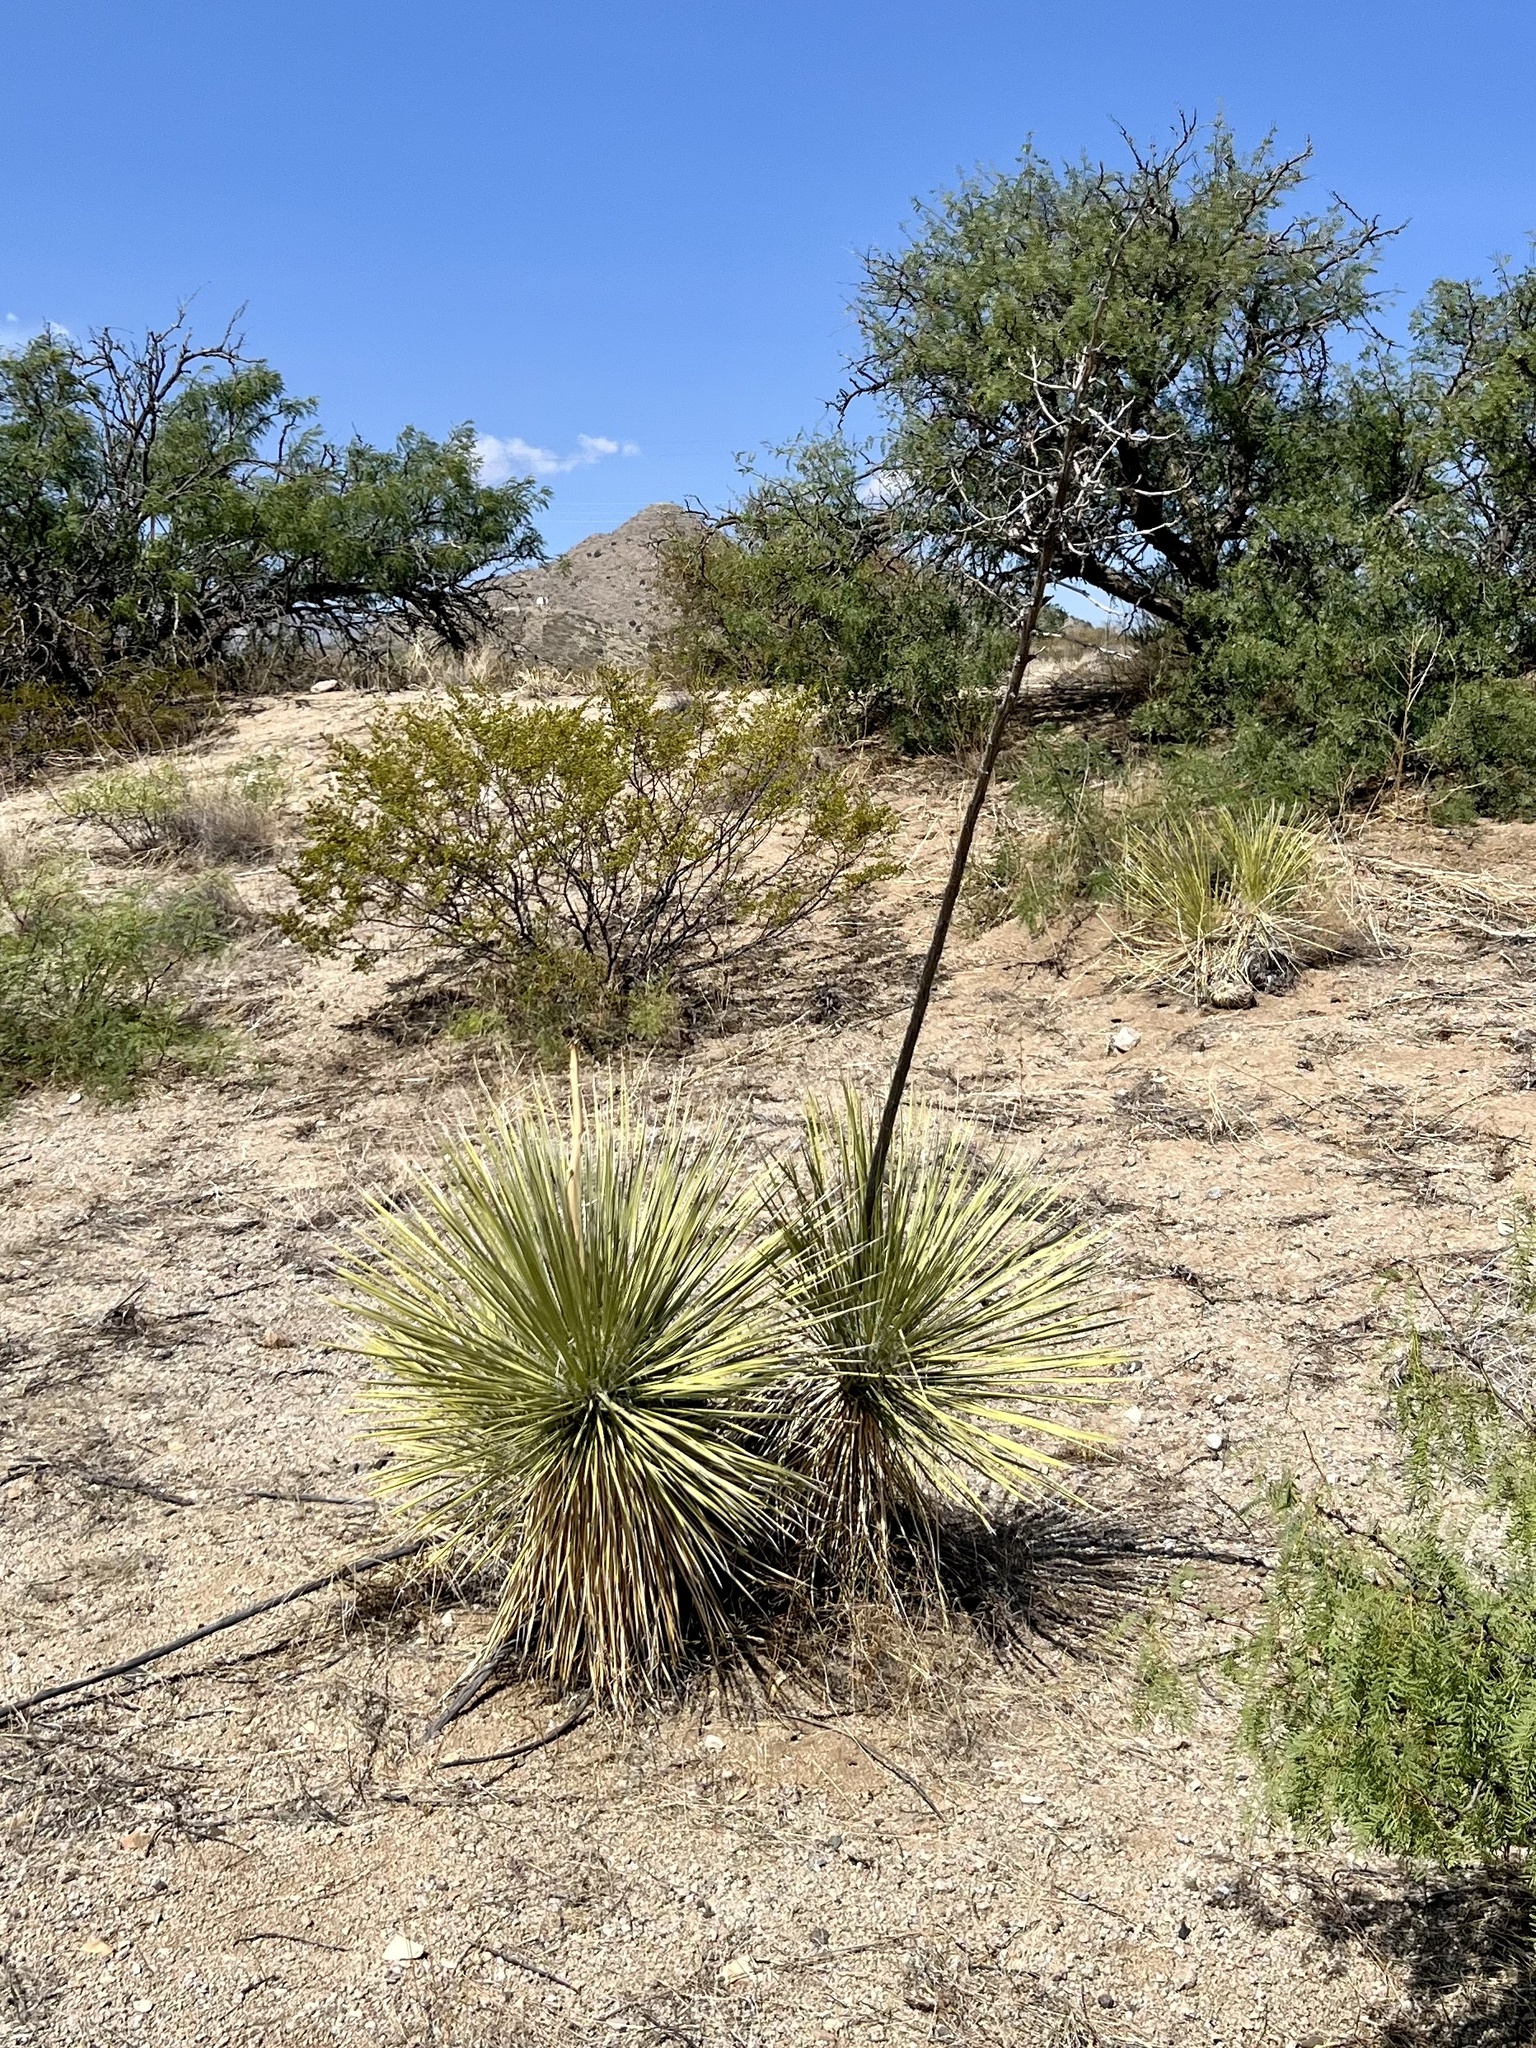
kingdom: Plantae
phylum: Tracheophyta
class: Liliopsida
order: Asparagales
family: Asparagaceae
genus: Yucca
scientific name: Yucca elata
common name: Palmella
